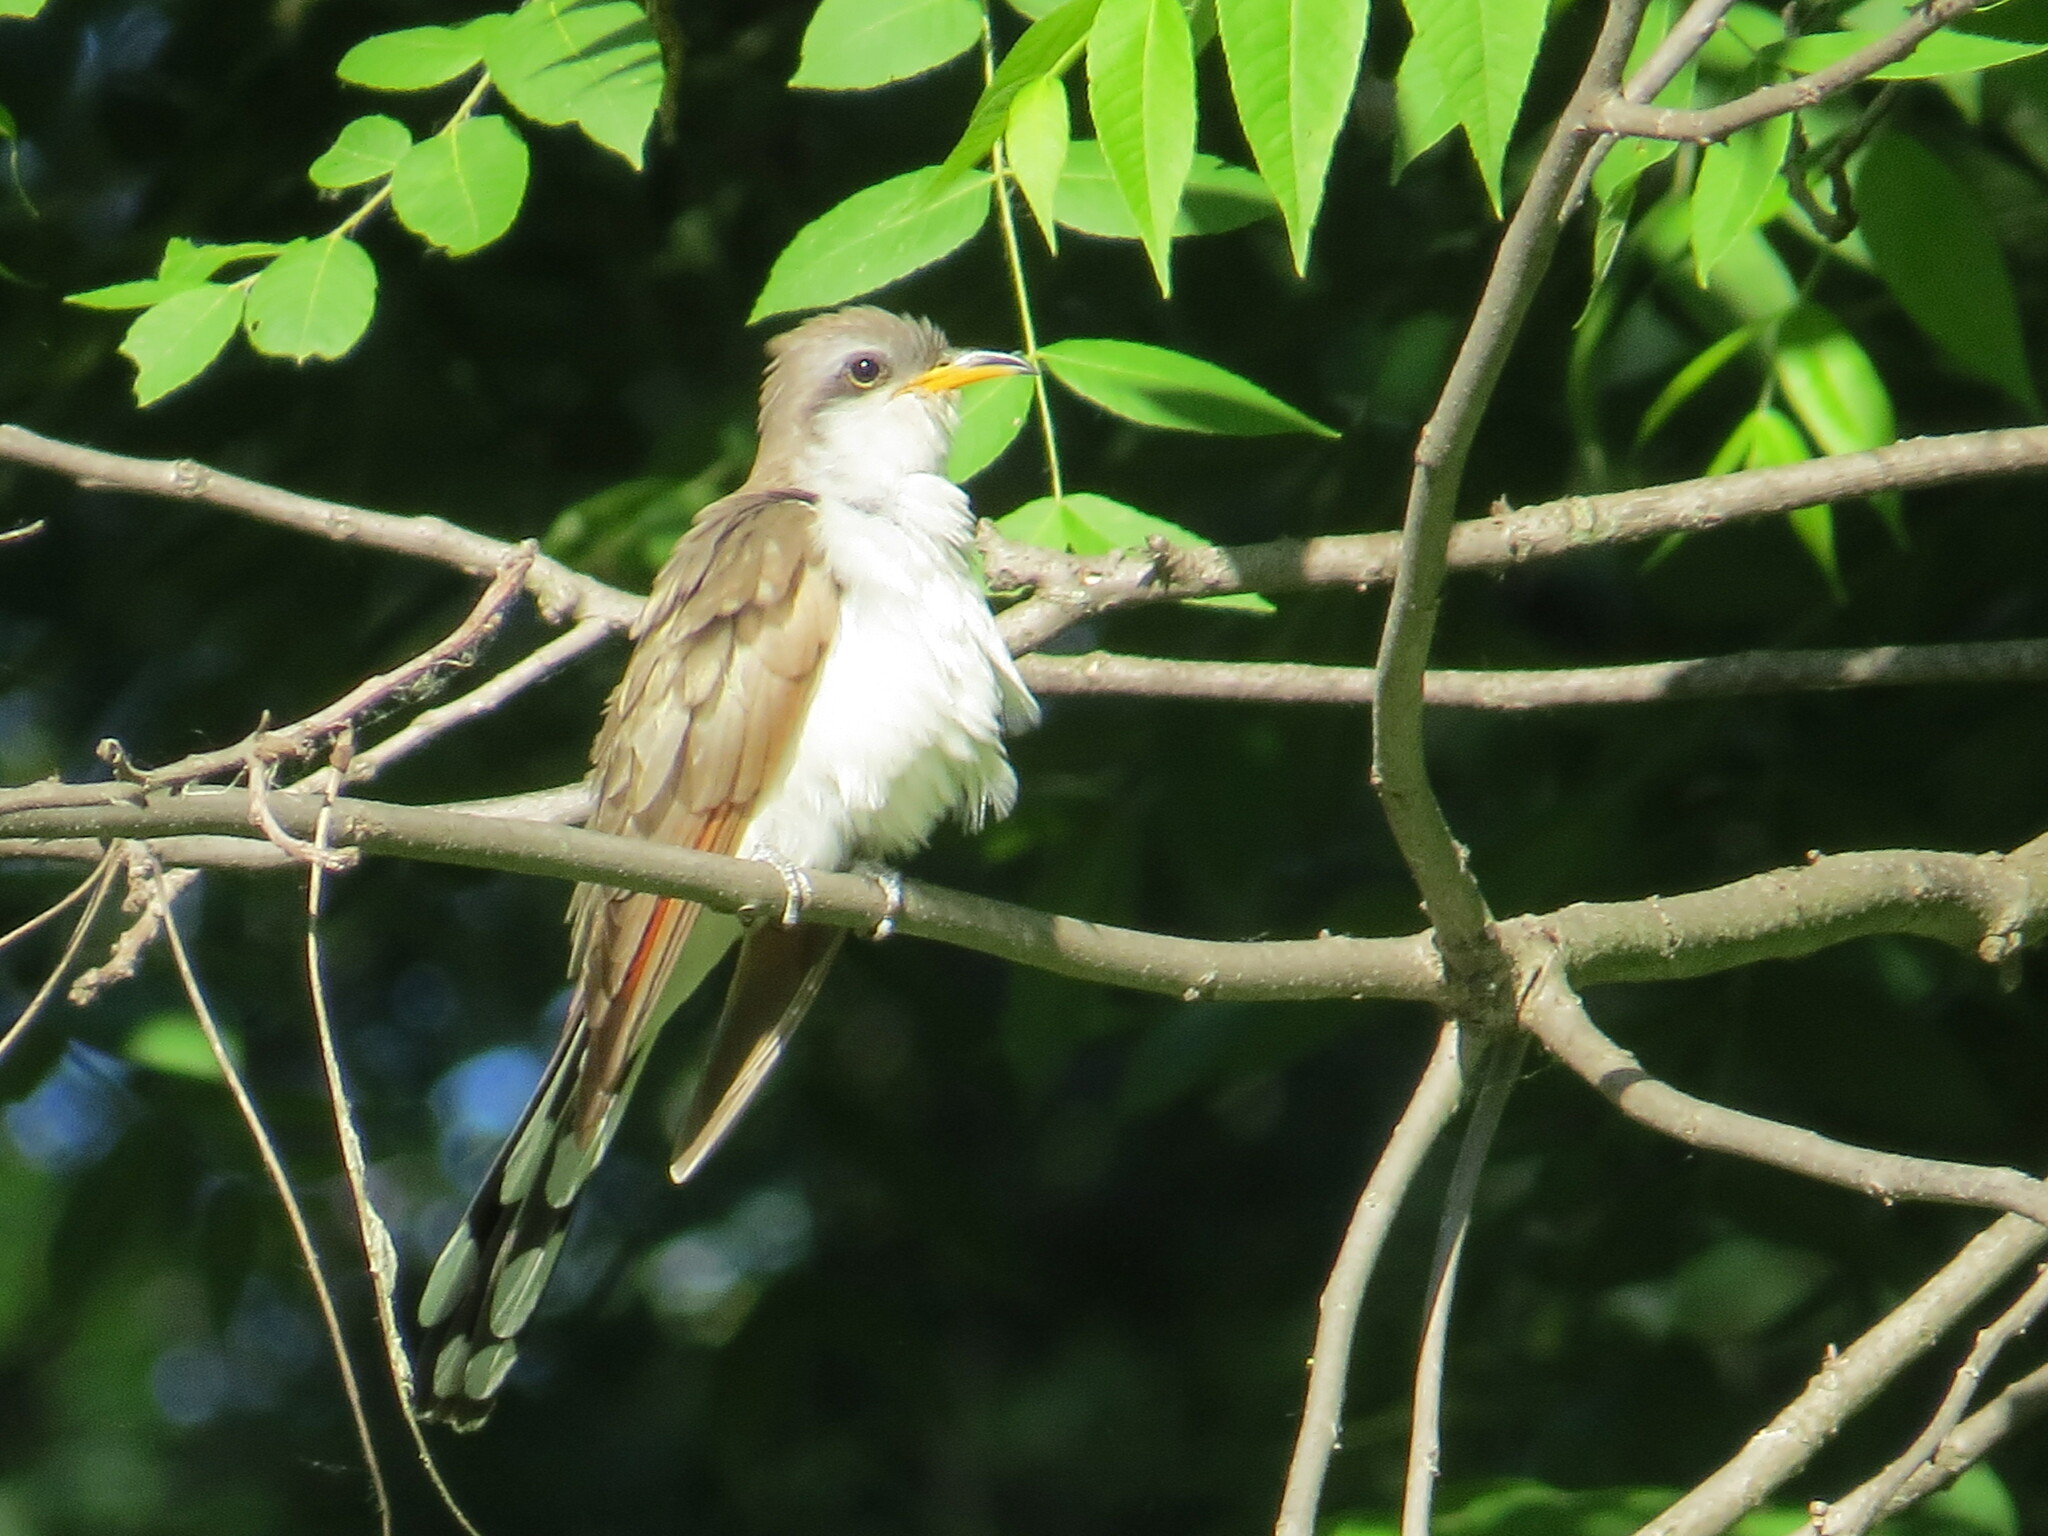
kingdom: Animalia
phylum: Chordata
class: Aves
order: Cuculiformes
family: Cuculidae
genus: Coccyzus
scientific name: Coccyzus americanus
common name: Yellow-billed cuckoo
